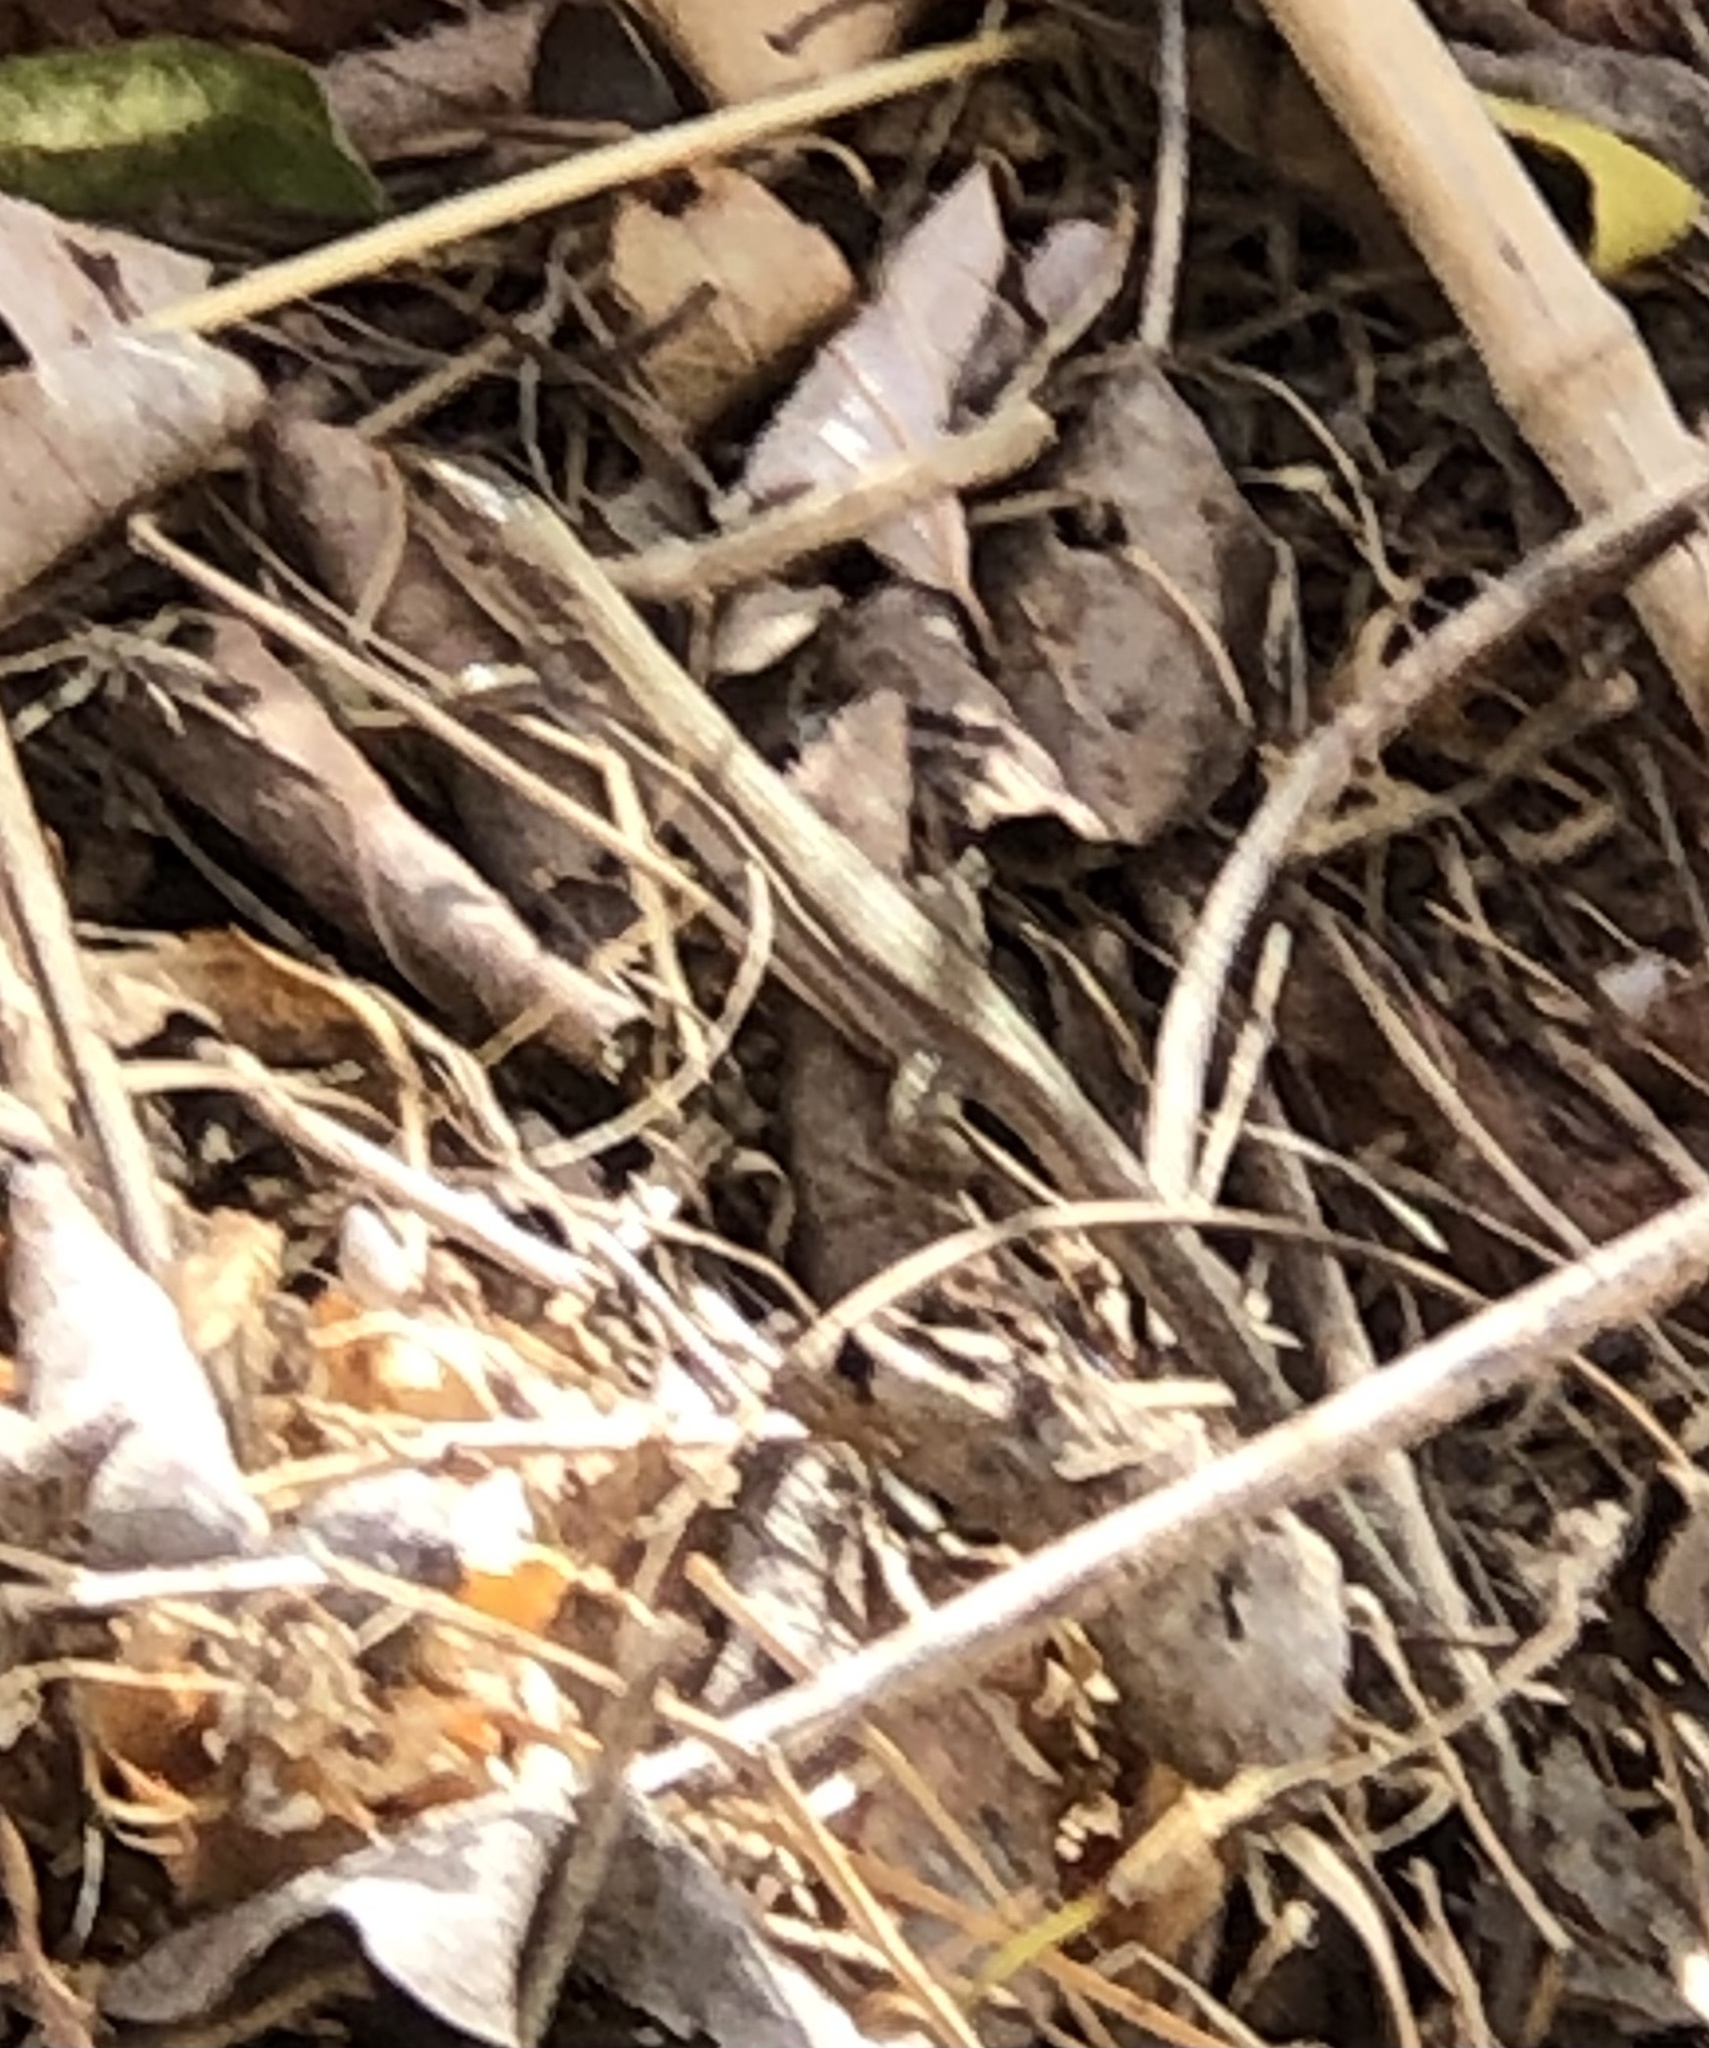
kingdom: Animalia
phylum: Chordata
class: Squamata
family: Lacertidae
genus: Podarcis
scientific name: Podarcis liolepis
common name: Catalonian wall lizard
